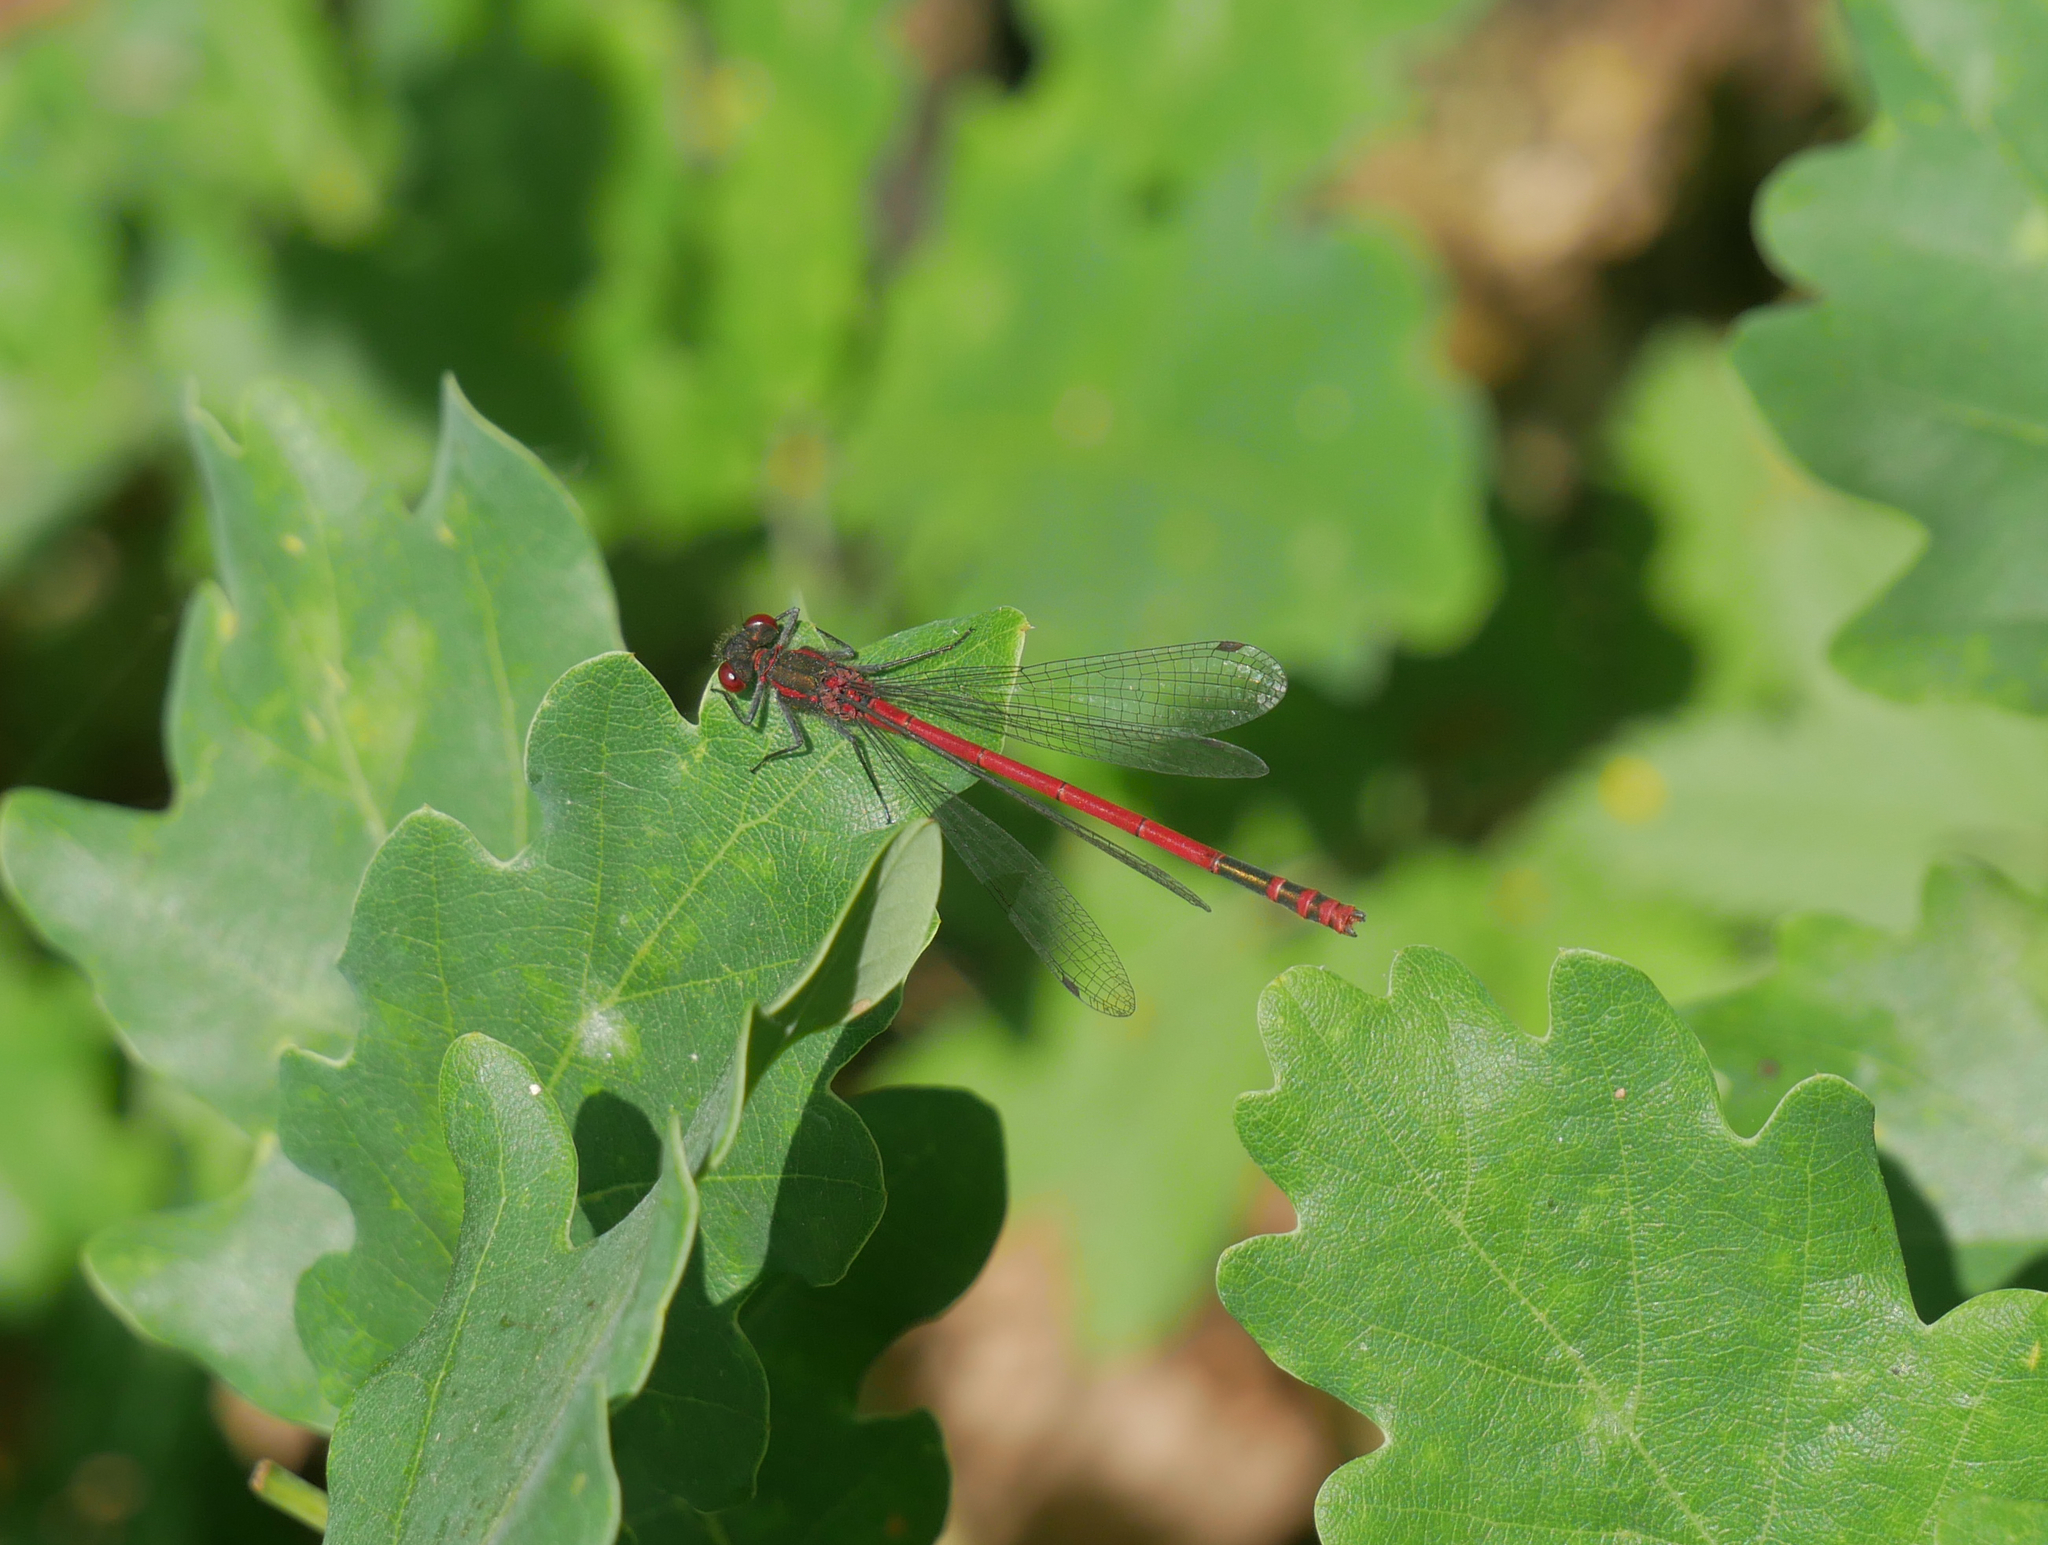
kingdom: Animalia
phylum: Arthropoda
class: Insecta
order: Odonata
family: Coenagrionidae
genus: Pyrrhosoma
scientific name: Pyrrhosoma nymphula
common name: Large red damsel
